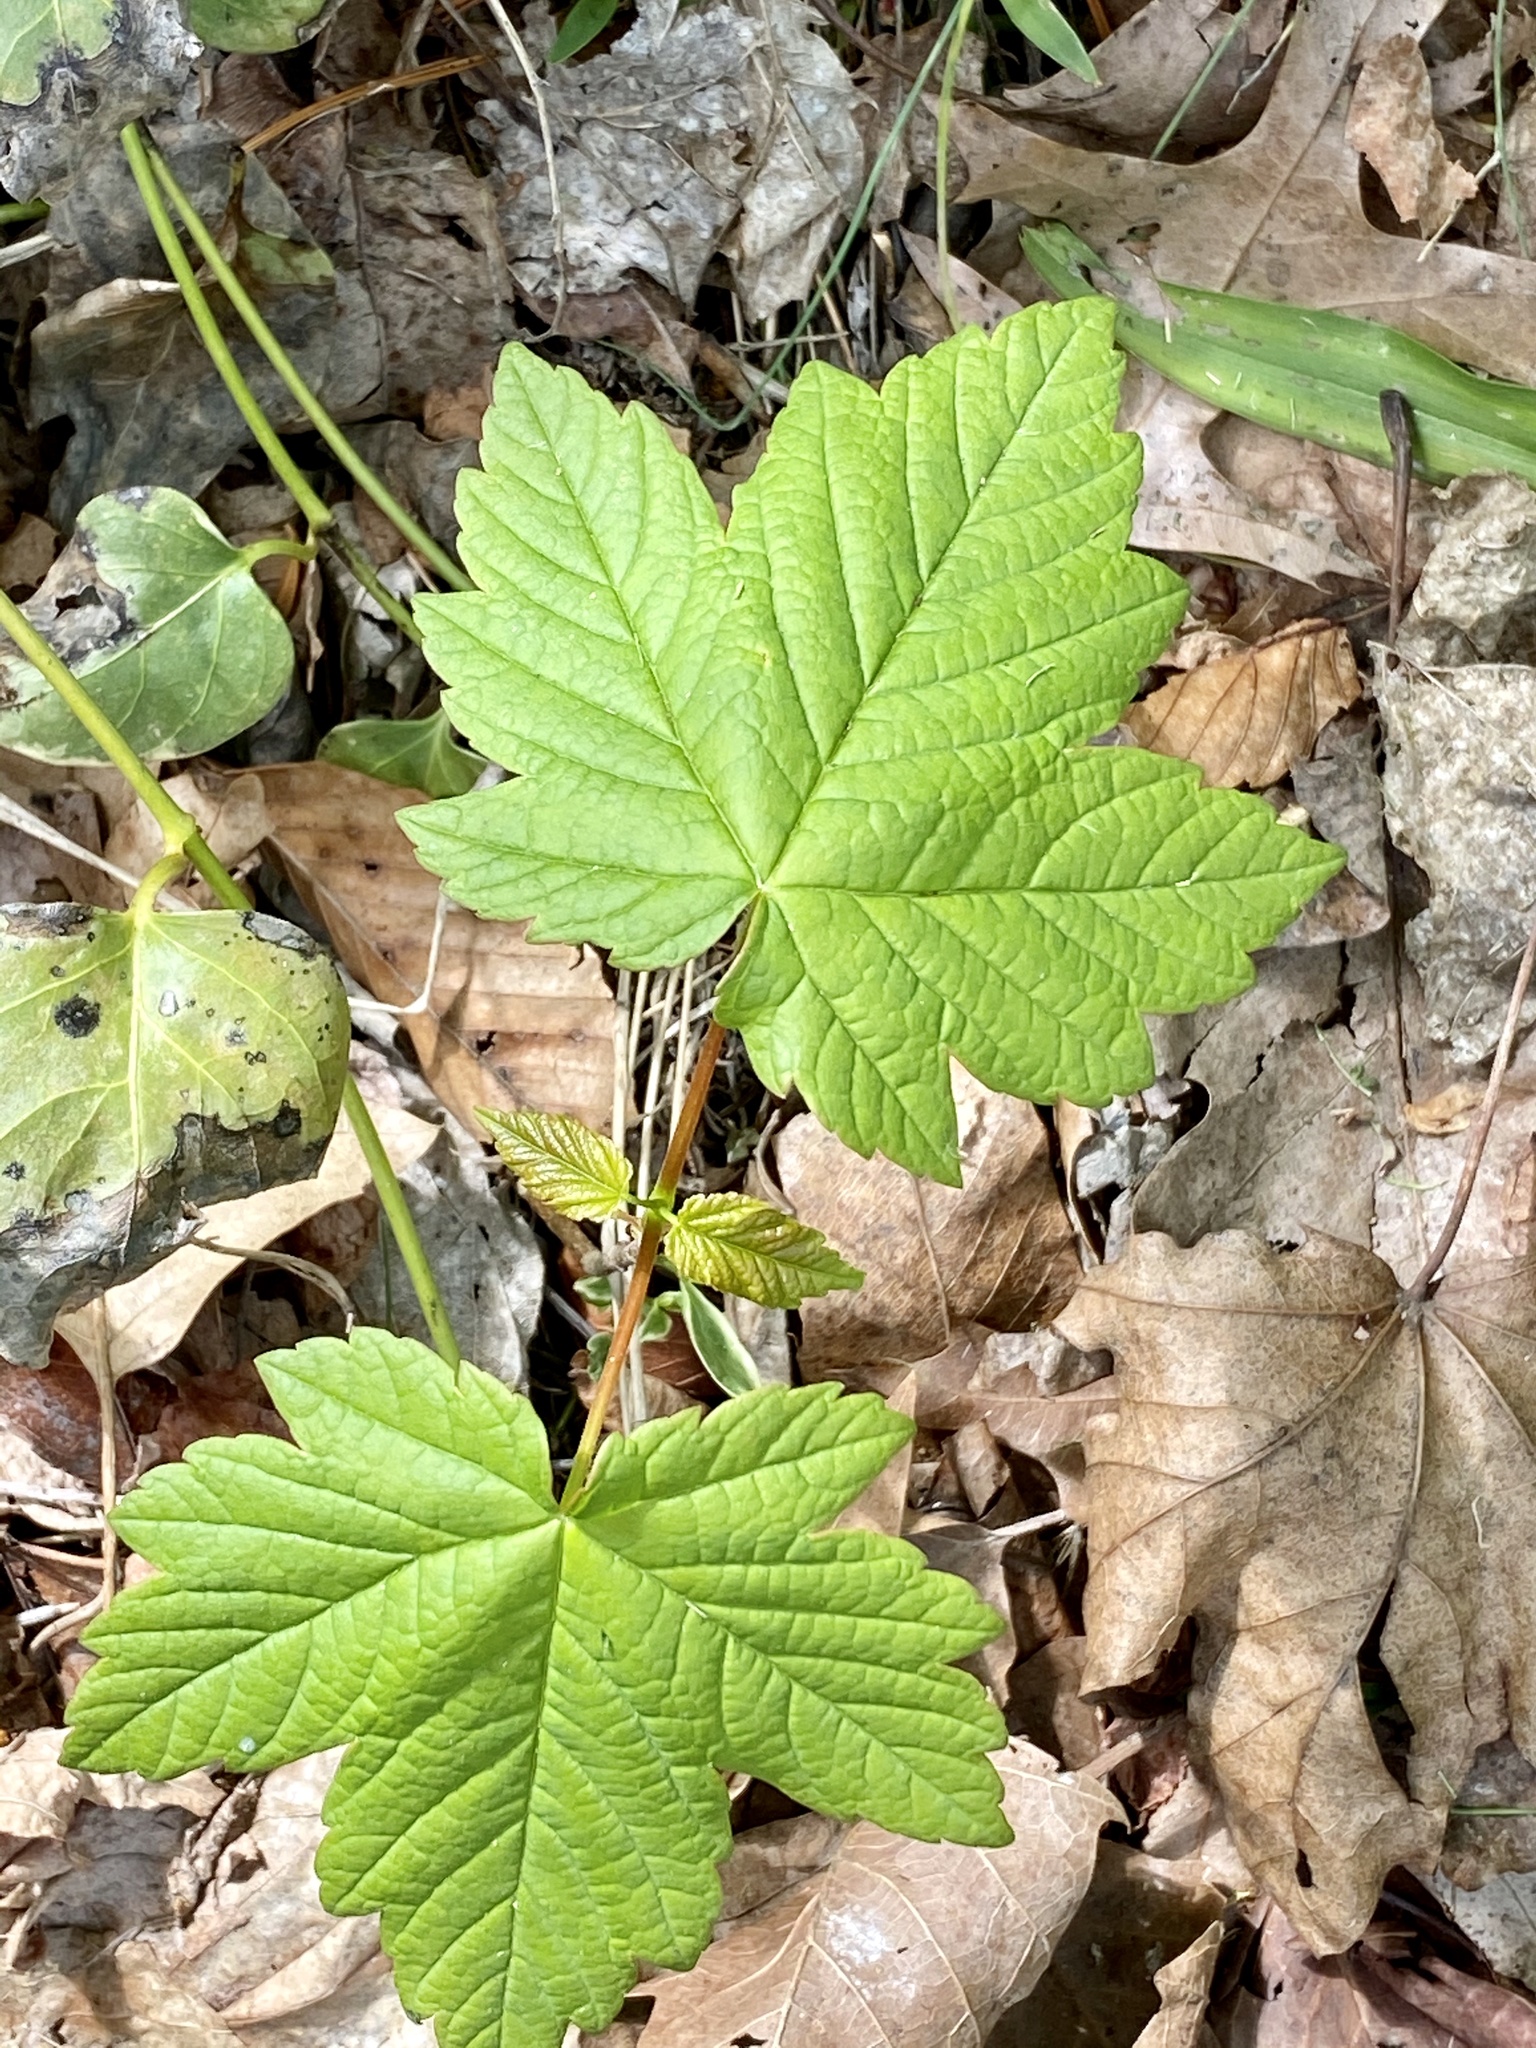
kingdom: Plantae
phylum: Tracheophyta
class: Magnoliopsida
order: Sapindales
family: Sapindaceae
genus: Acer
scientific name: Acer pseudoplatanus
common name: Sycamore
